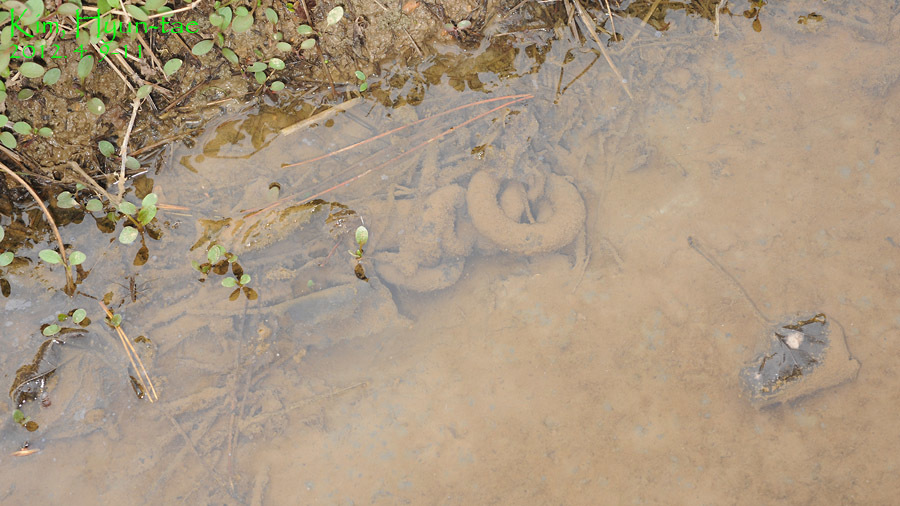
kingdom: Animalia
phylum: Chordata
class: Amphibia
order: Caudata
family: Hynobiidae
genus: Hynobius
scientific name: Hynobius leechii
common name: Gensan salamander
